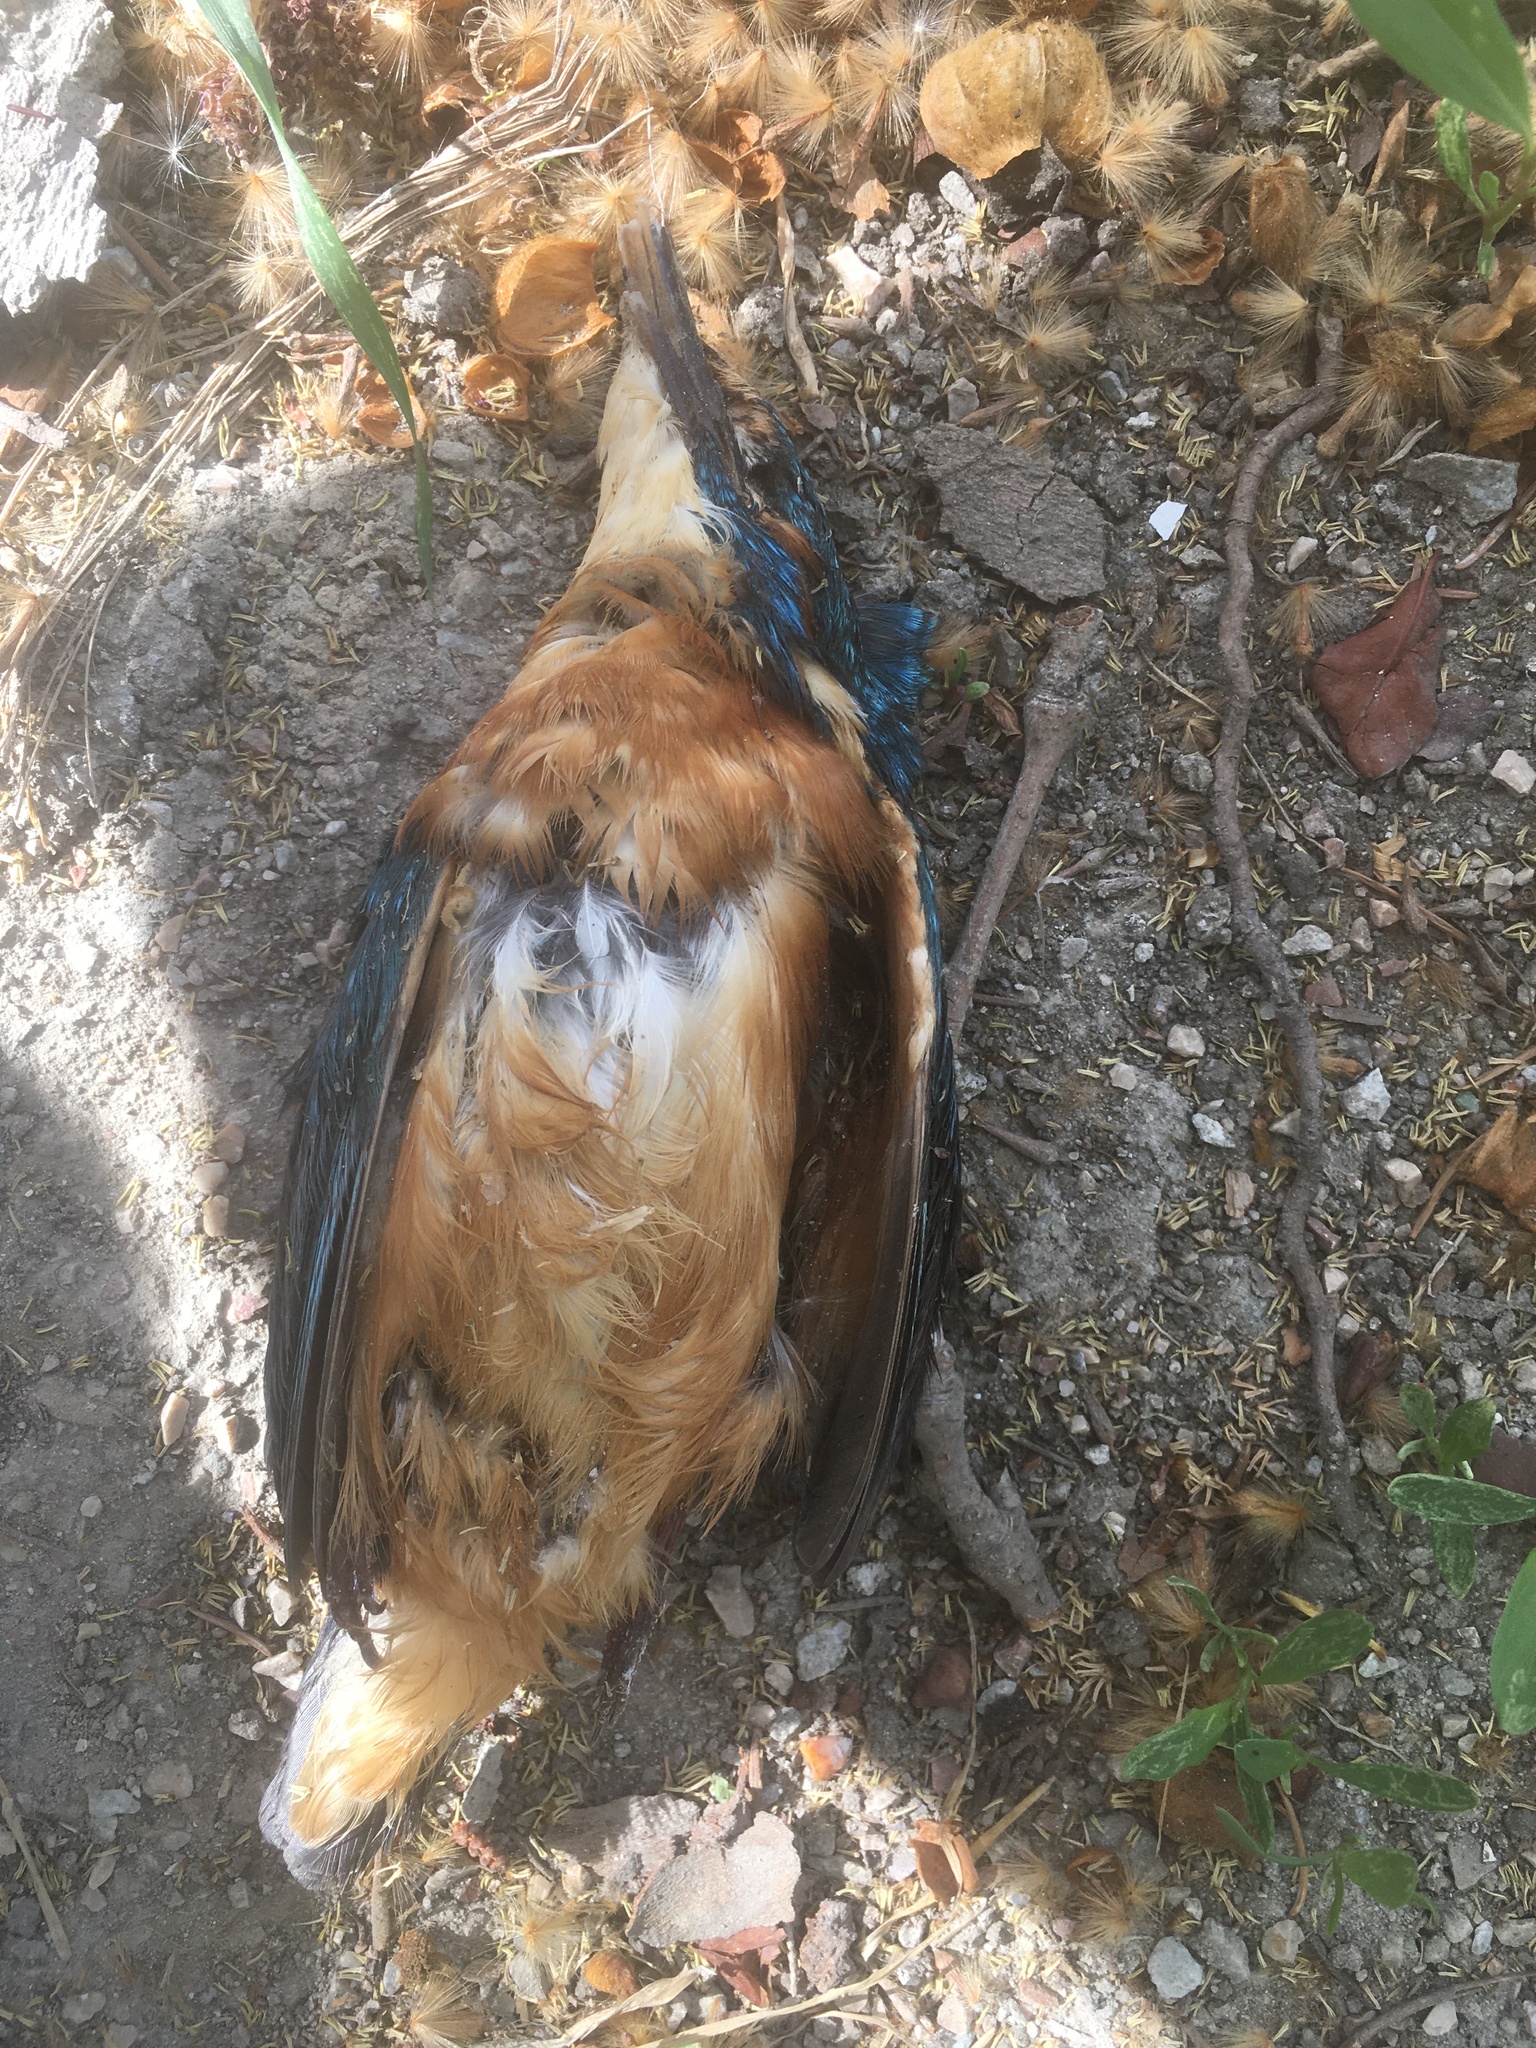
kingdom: Animalia
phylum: Chordata
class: Aves
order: Coraciiformes
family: Alcedinidae
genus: Alcedo
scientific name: Alcedo atthis
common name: Common kingfisher
